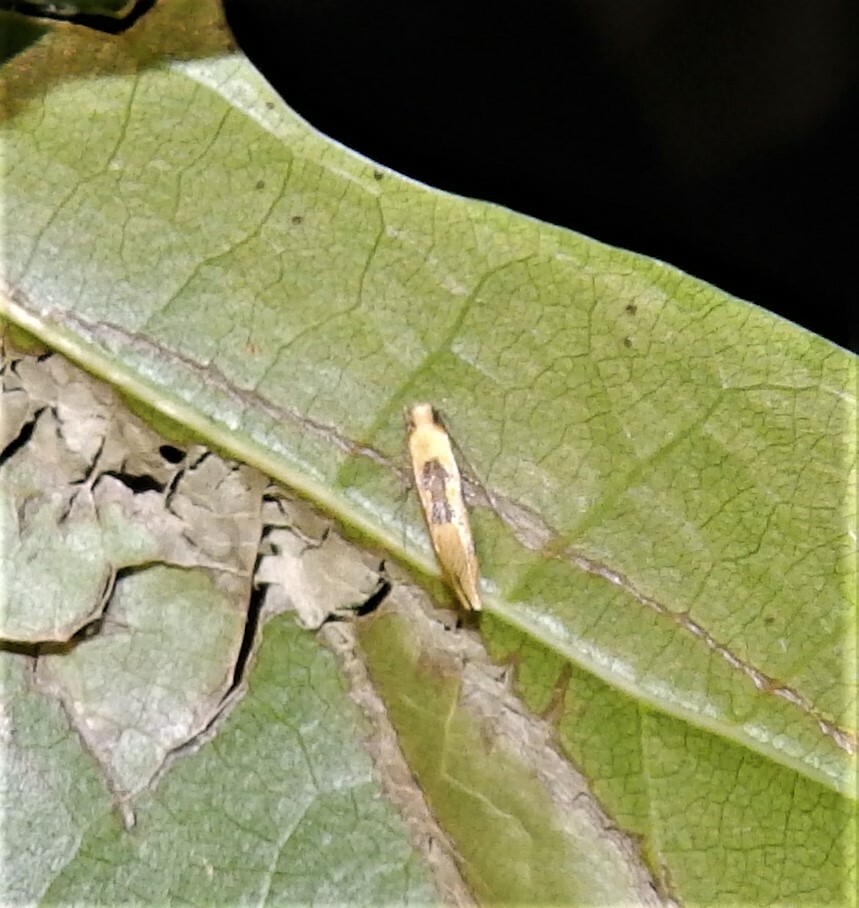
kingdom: Animalia
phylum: Arthropoda
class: Insecta
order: Lepidoptera
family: Meessiidae
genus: Hybroma
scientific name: Hybroma servulella
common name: Yellow wave moth
